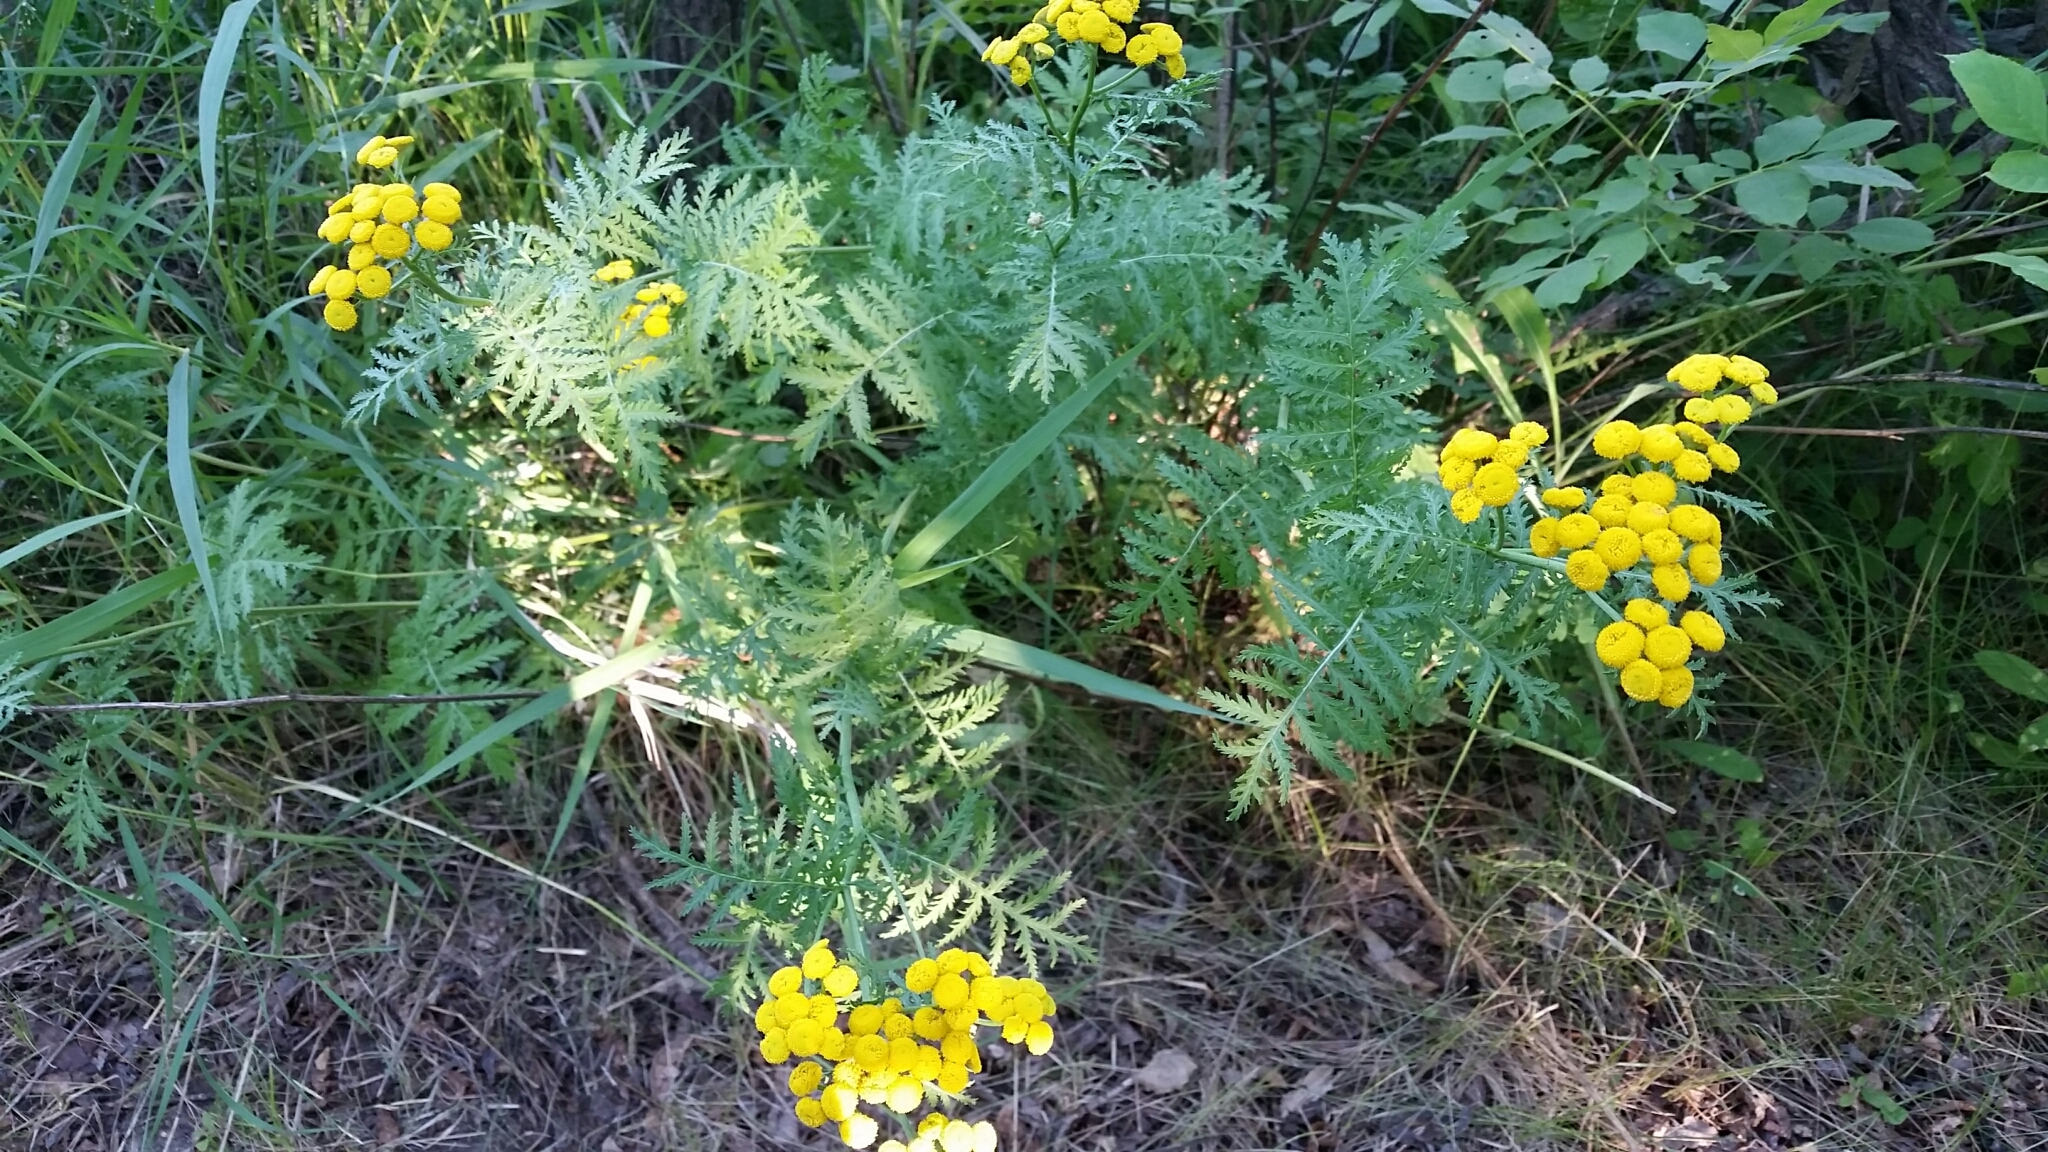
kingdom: Plantae
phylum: Tracheophyta
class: Magnoliopsida
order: Asterales
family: Asteraceae
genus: Tanacetum
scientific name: Tanacetum vulgare
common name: Common tansy
